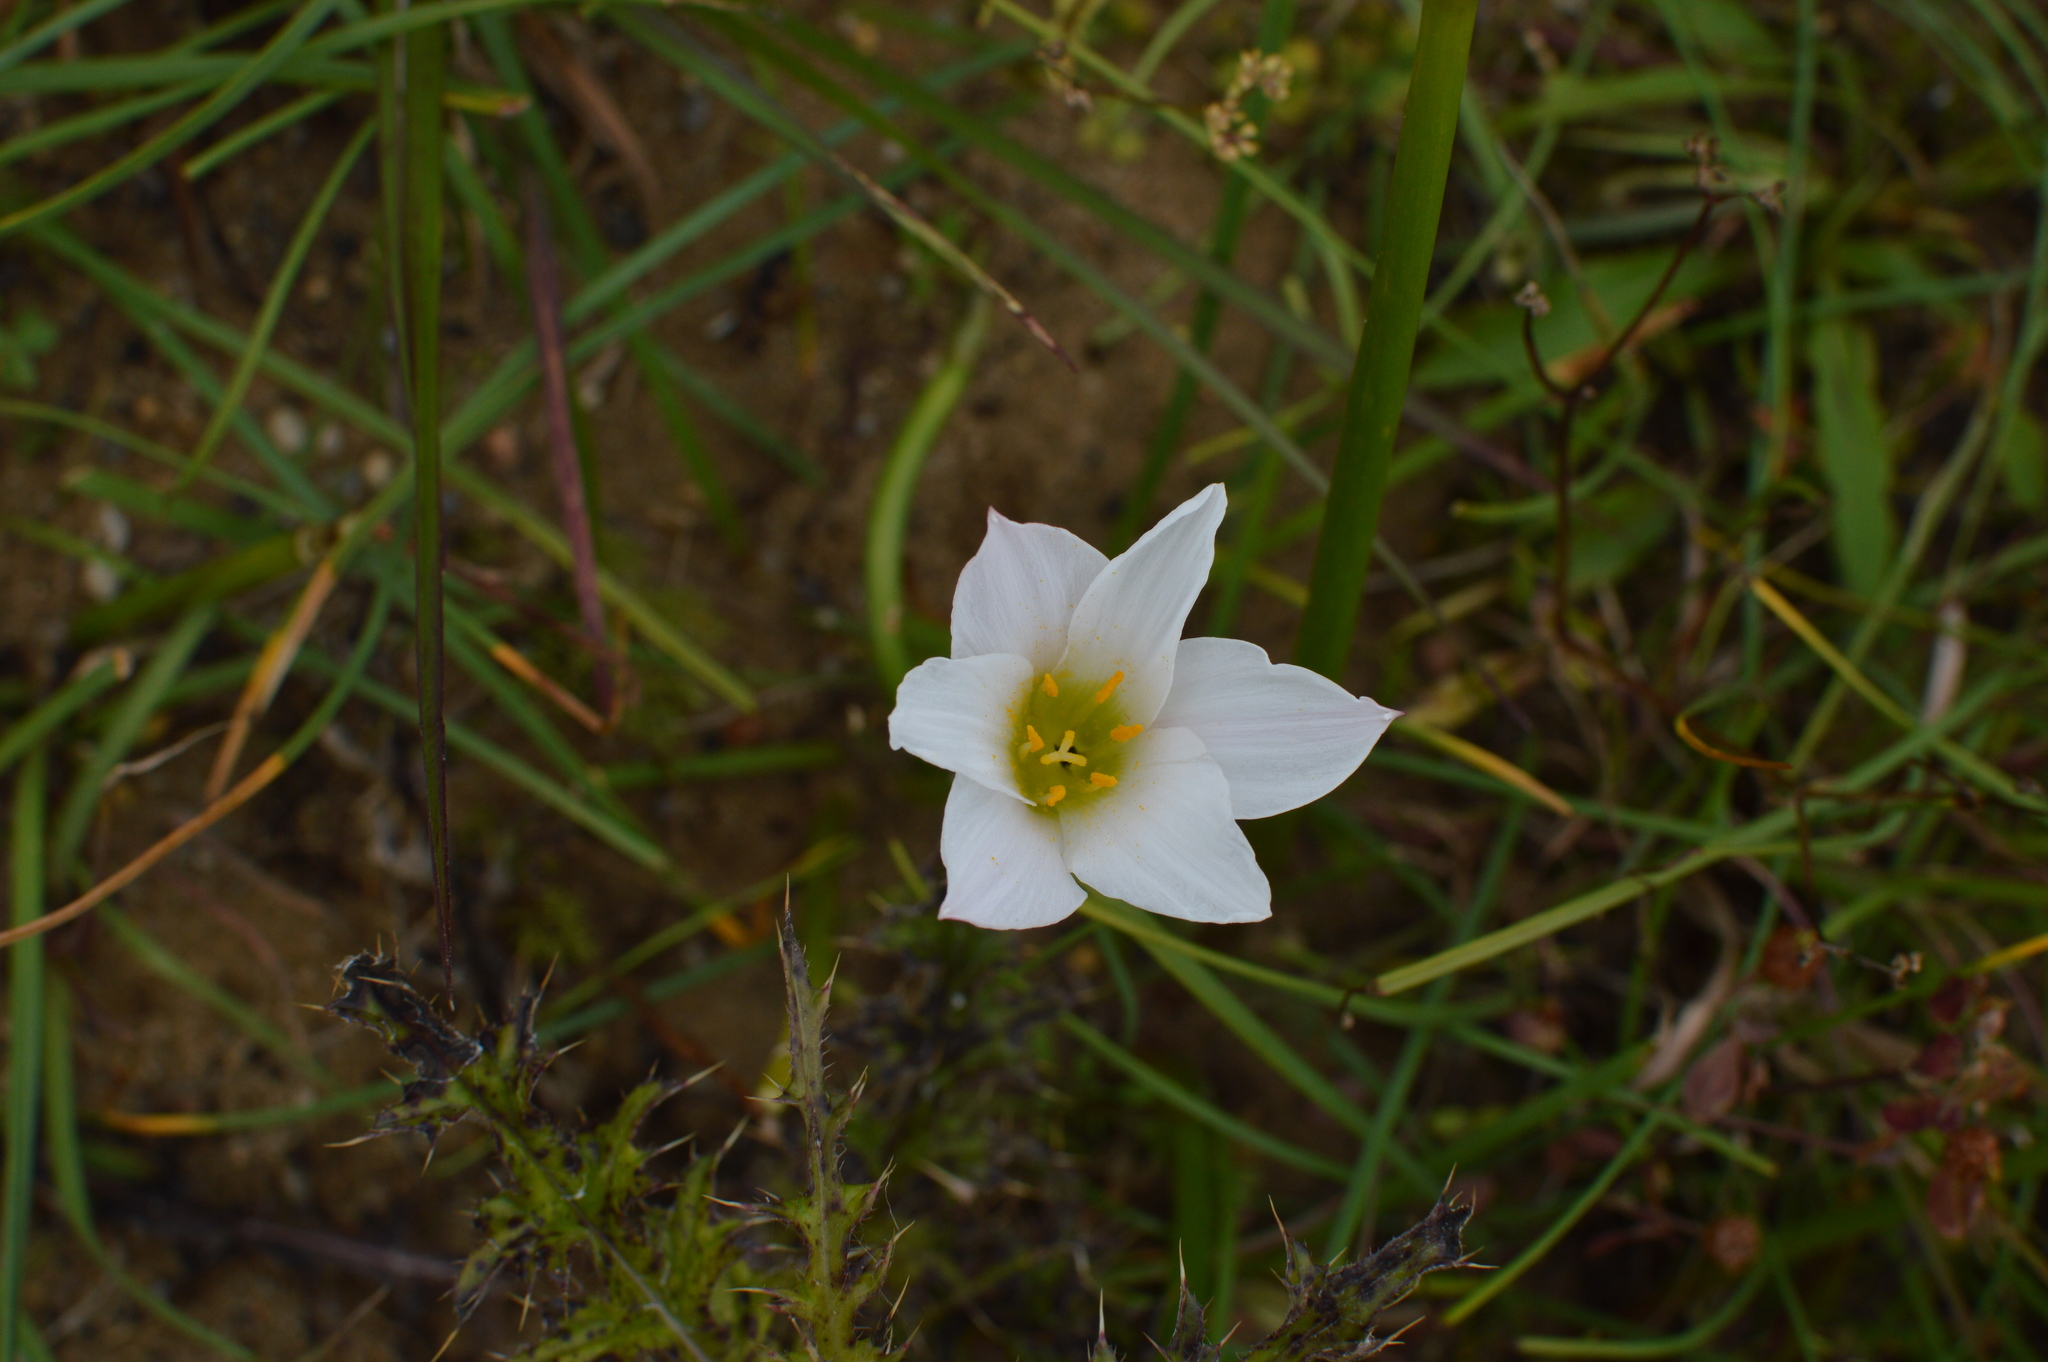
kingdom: Plantae
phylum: Tracheophyta
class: Liliopsida
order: Asparagales
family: Amaryllidaceae
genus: Zephyranthes
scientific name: Zephyranthes simpsonii
